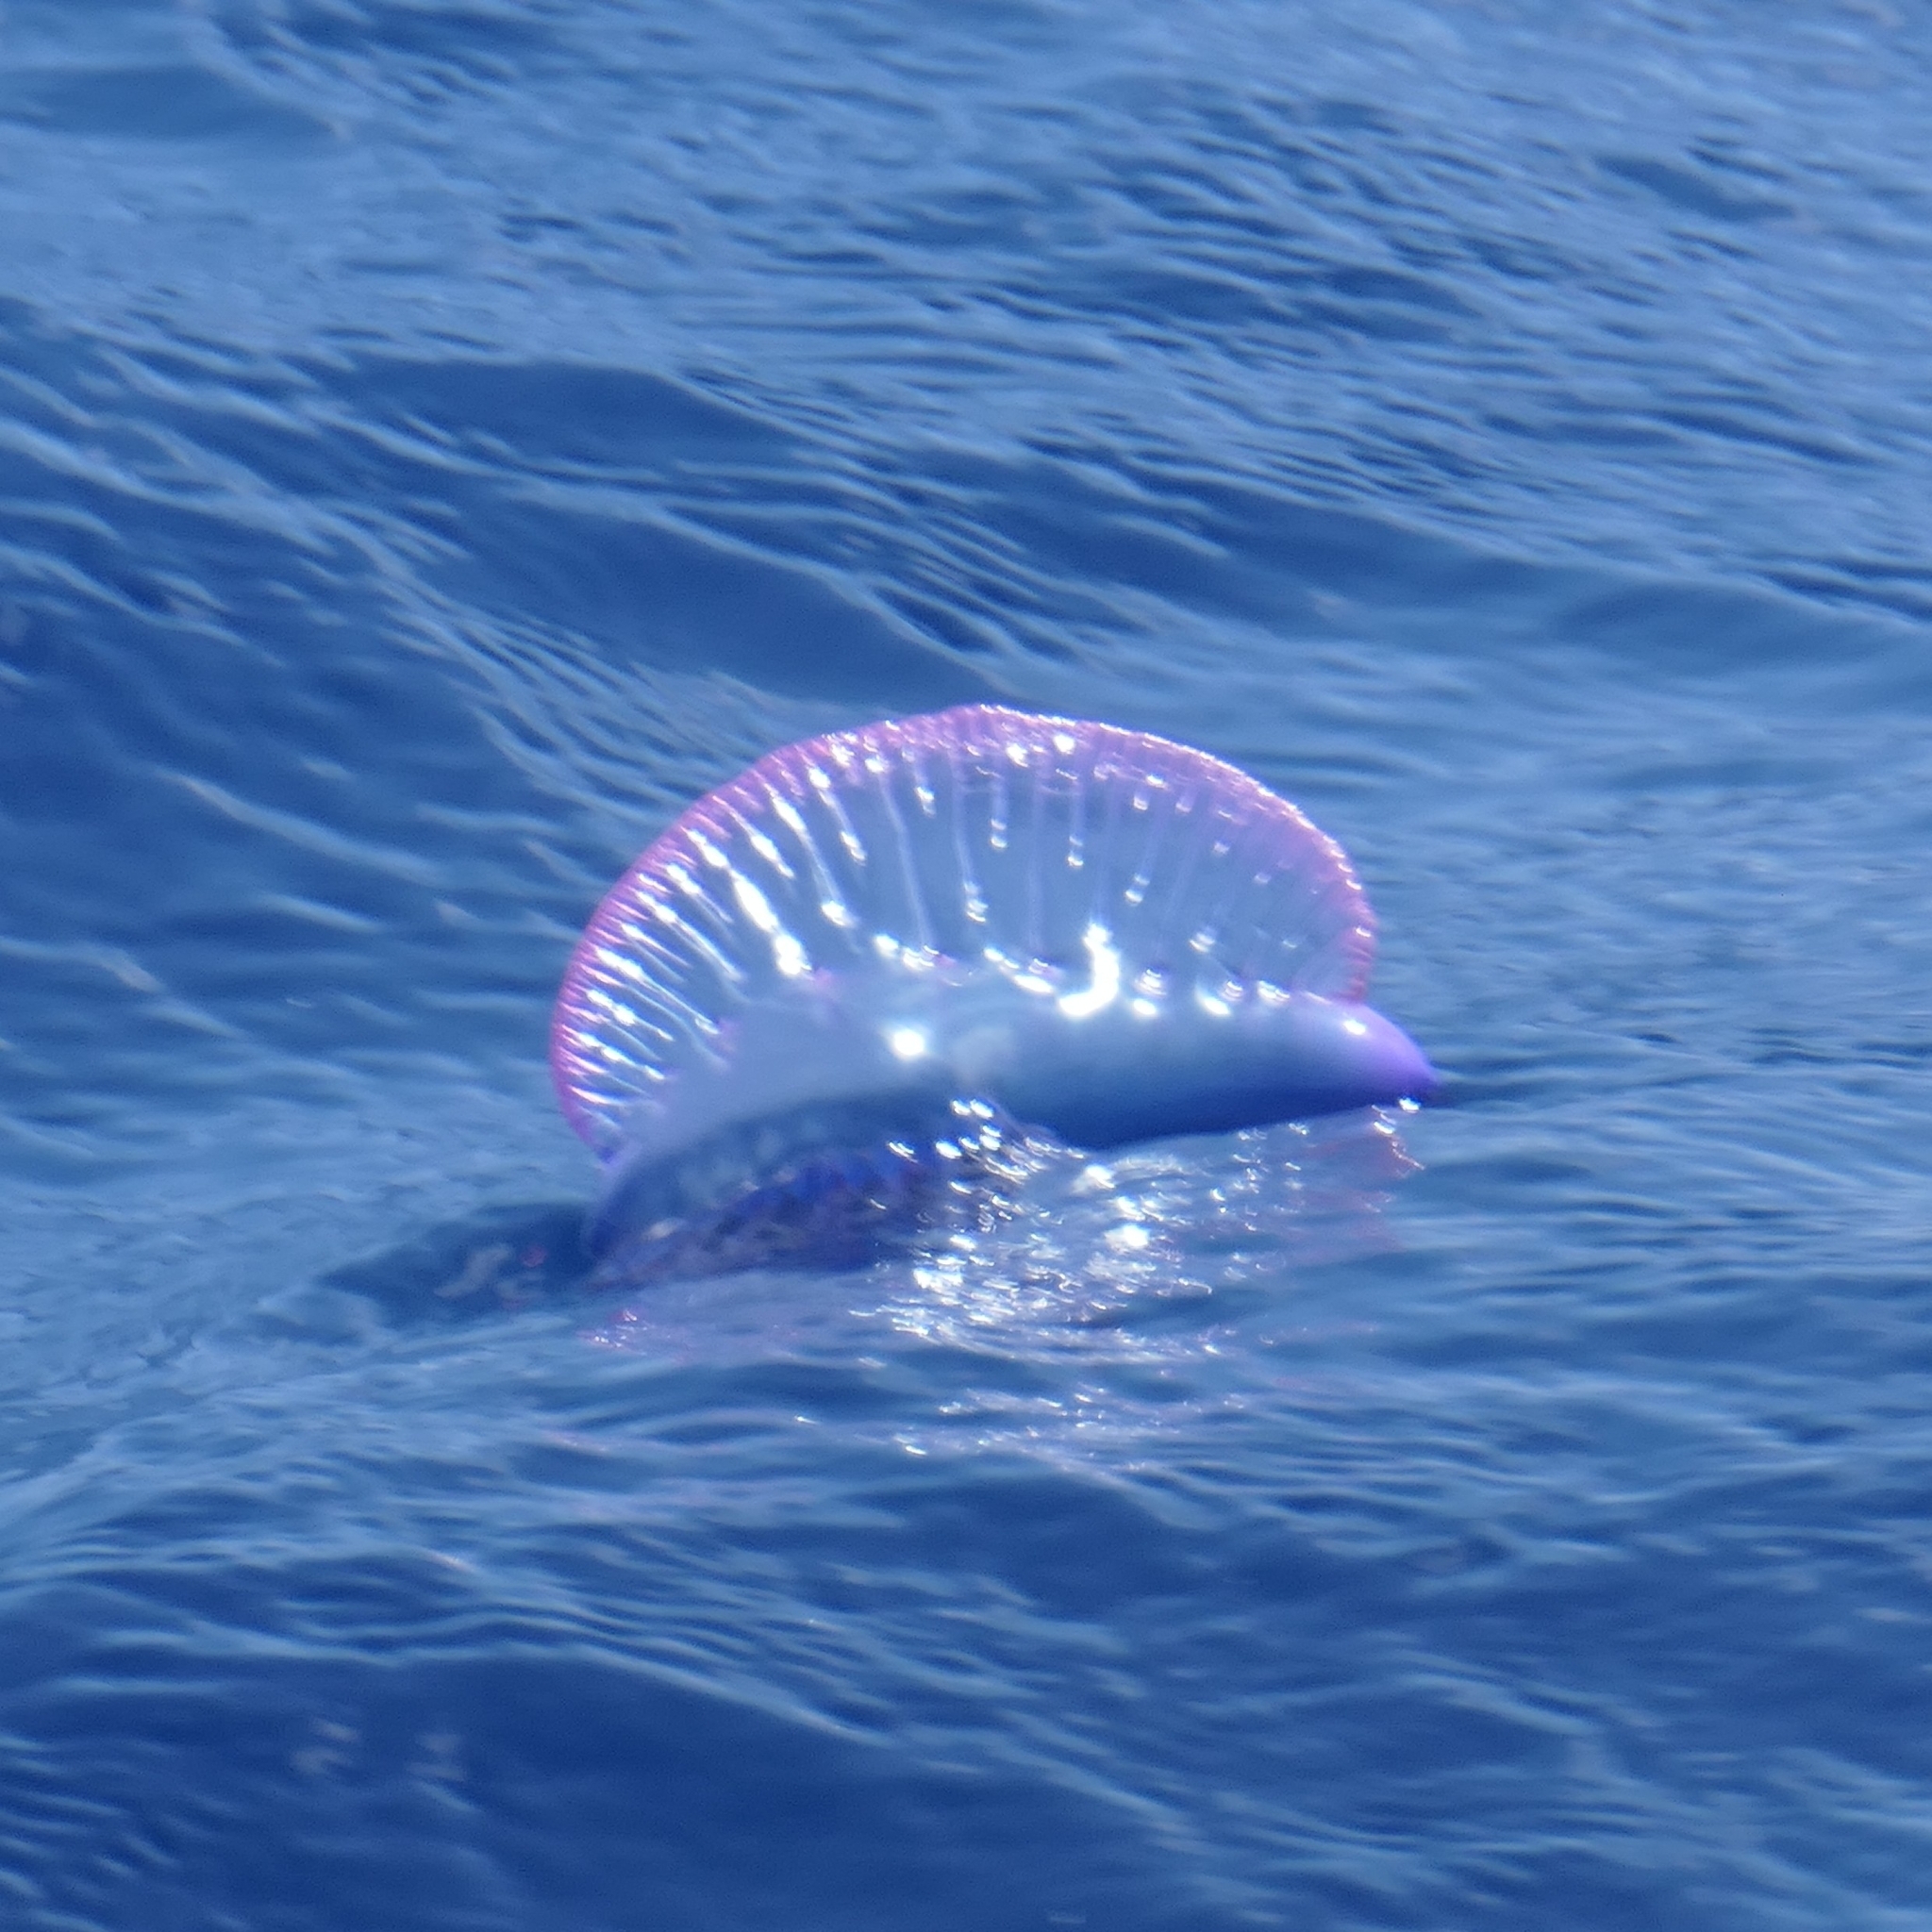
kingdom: Animalia
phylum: Cnidaria
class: Hydrozoa
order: Siphonophorae
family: Physaliidae
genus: Physalia
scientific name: Physalia physalis
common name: Portuguese man-of-war
